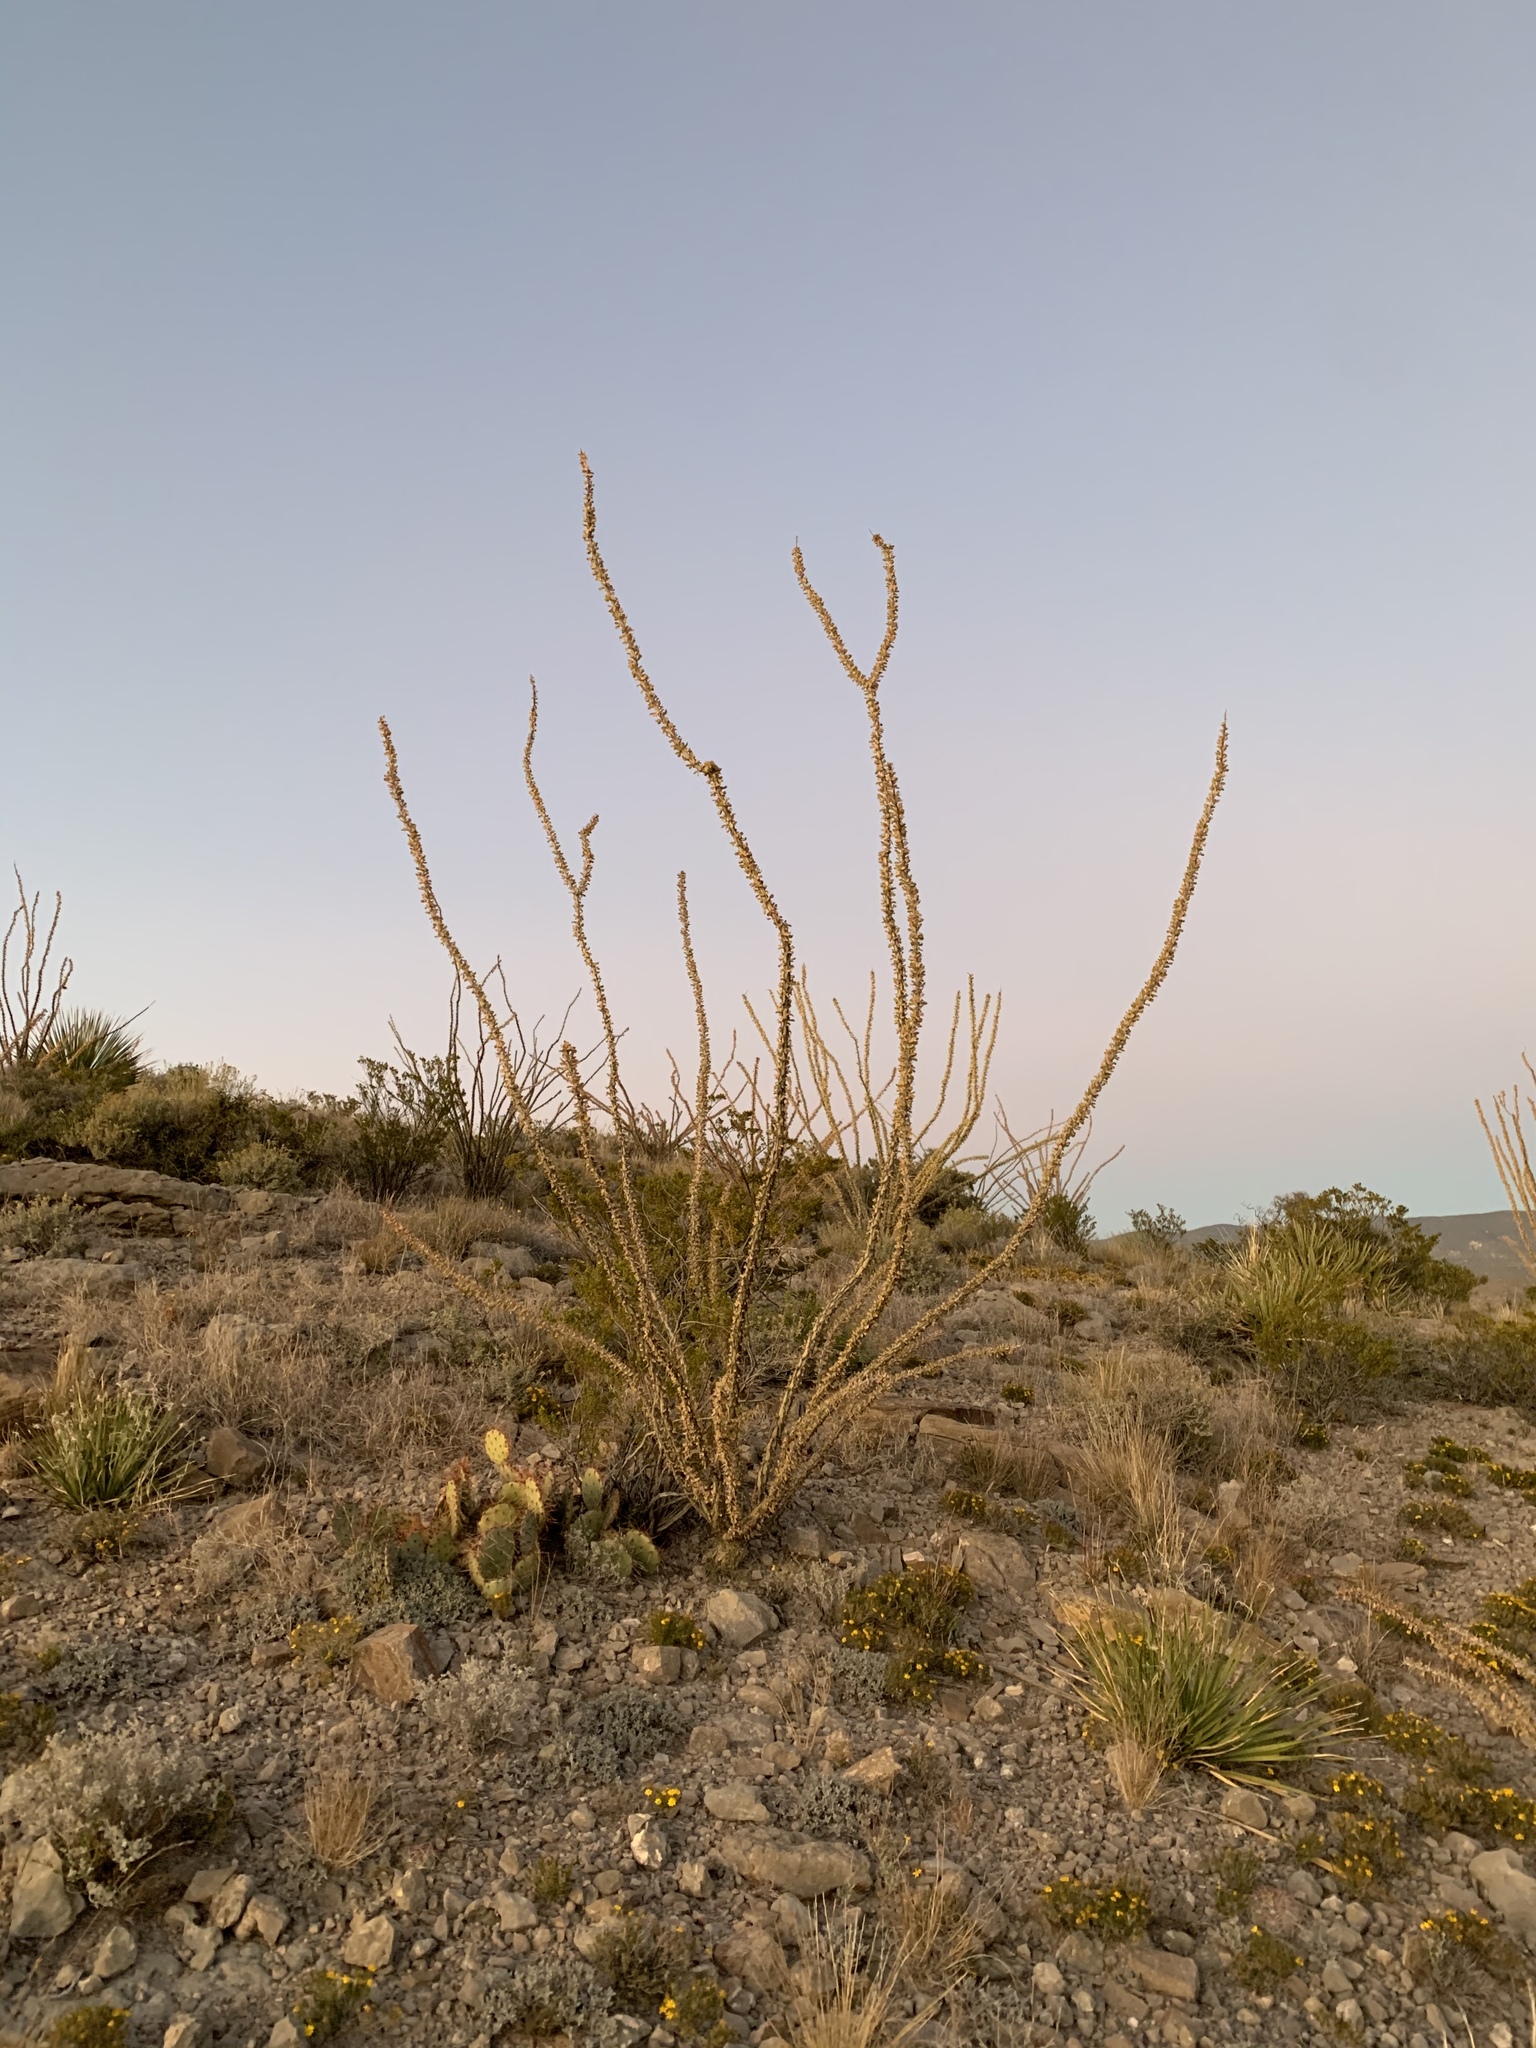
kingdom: Plantae
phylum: Tracheophyta
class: Magnoliopsida
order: Ericales
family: Fouquieriaceae
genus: Fouquieria
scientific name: Fouquieria splendens
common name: Vine-cactus
